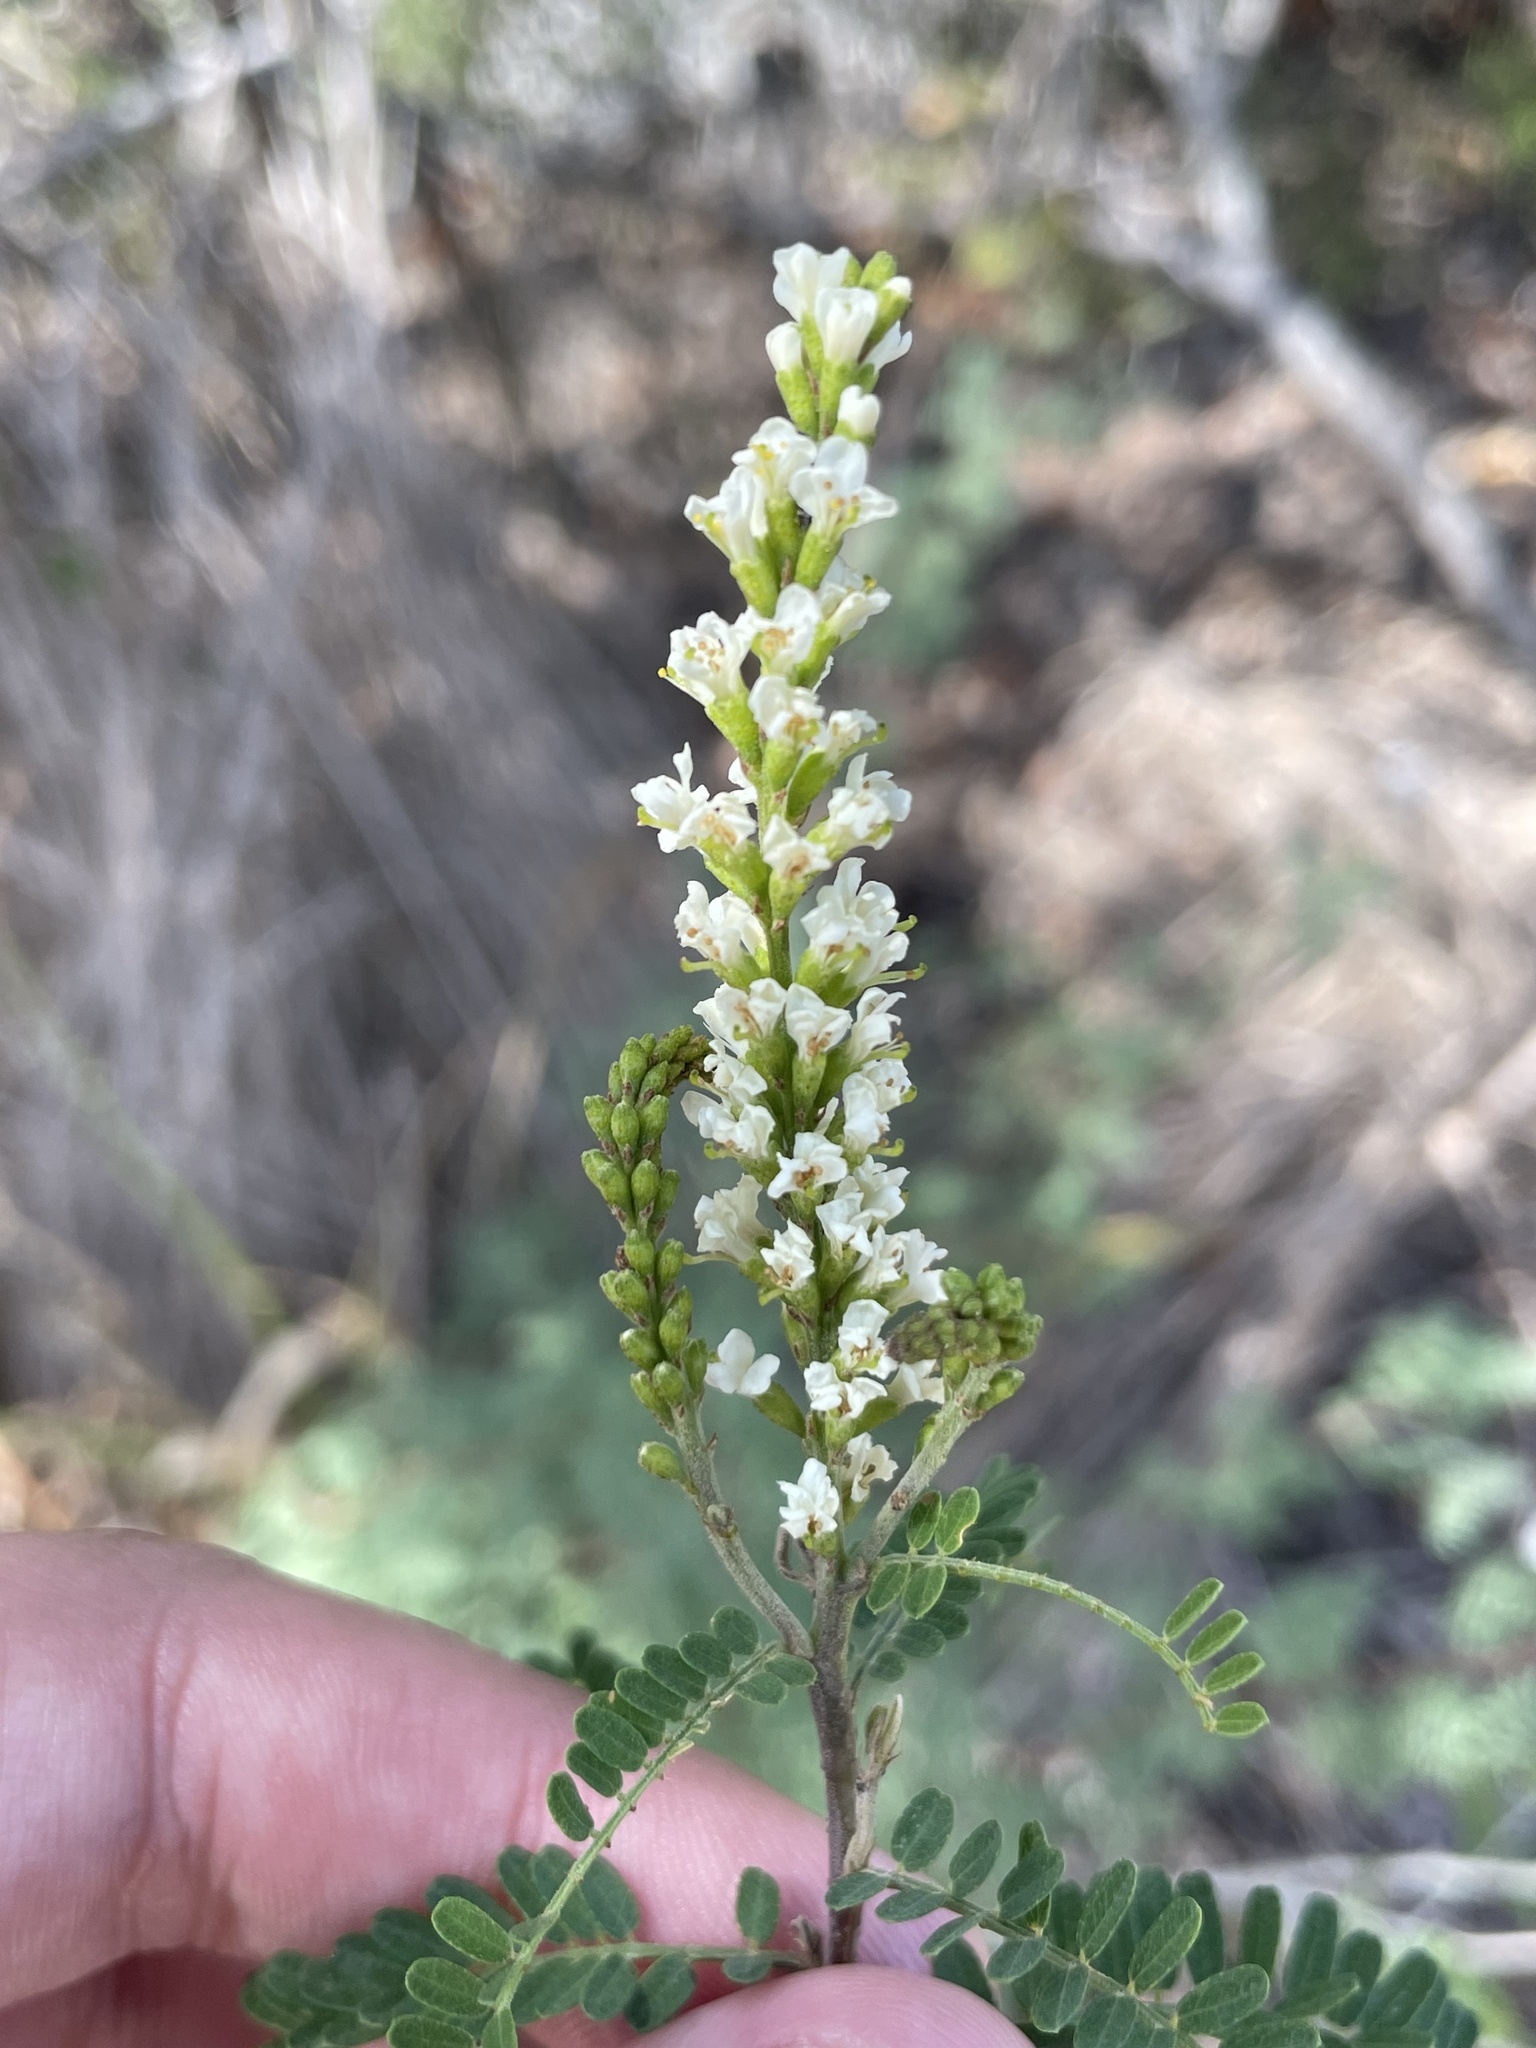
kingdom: Plantae
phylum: Tracheophyta
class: Magnoliopsida
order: Fabales
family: Fabaceae
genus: Eysenhardtia
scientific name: Eysenhardtia texana
